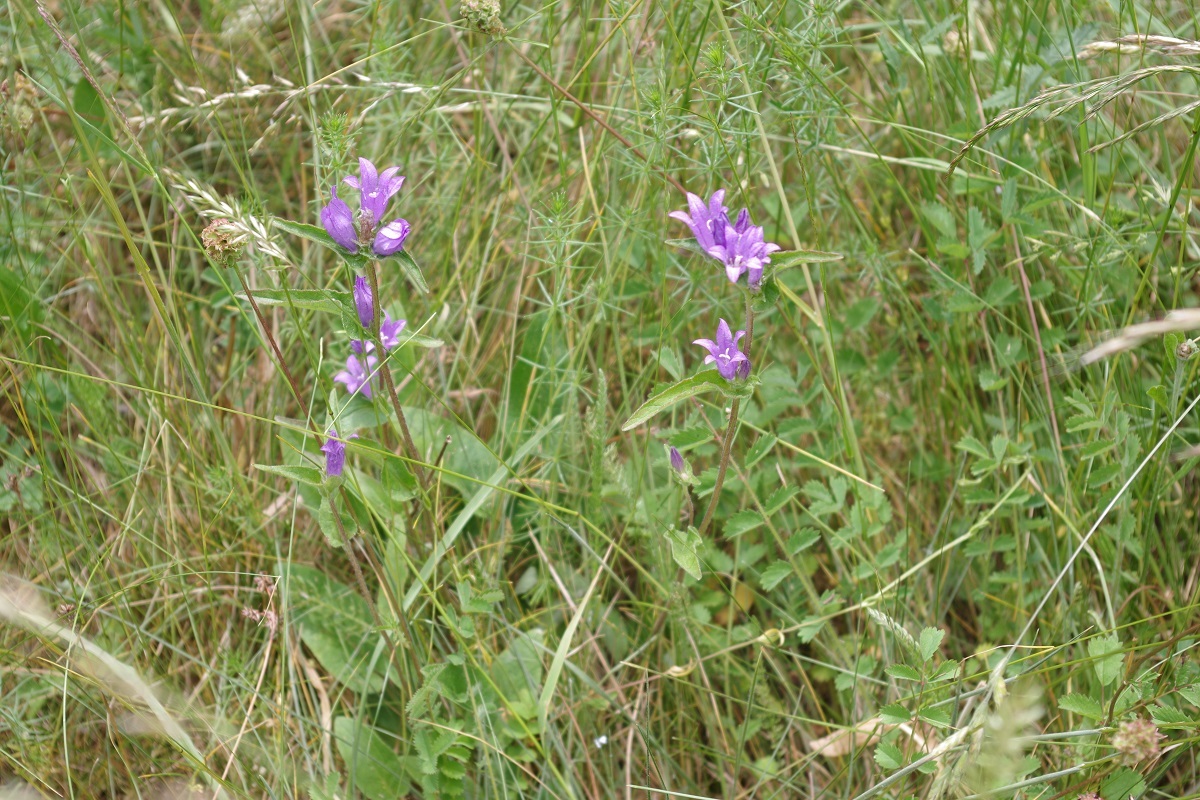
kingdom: Plantae
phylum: Tracheophyta
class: Magnoliopsida
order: Asterales
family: Campanulaceae
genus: Campanula
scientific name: Campanula glomerata
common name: Clustered bellflower
